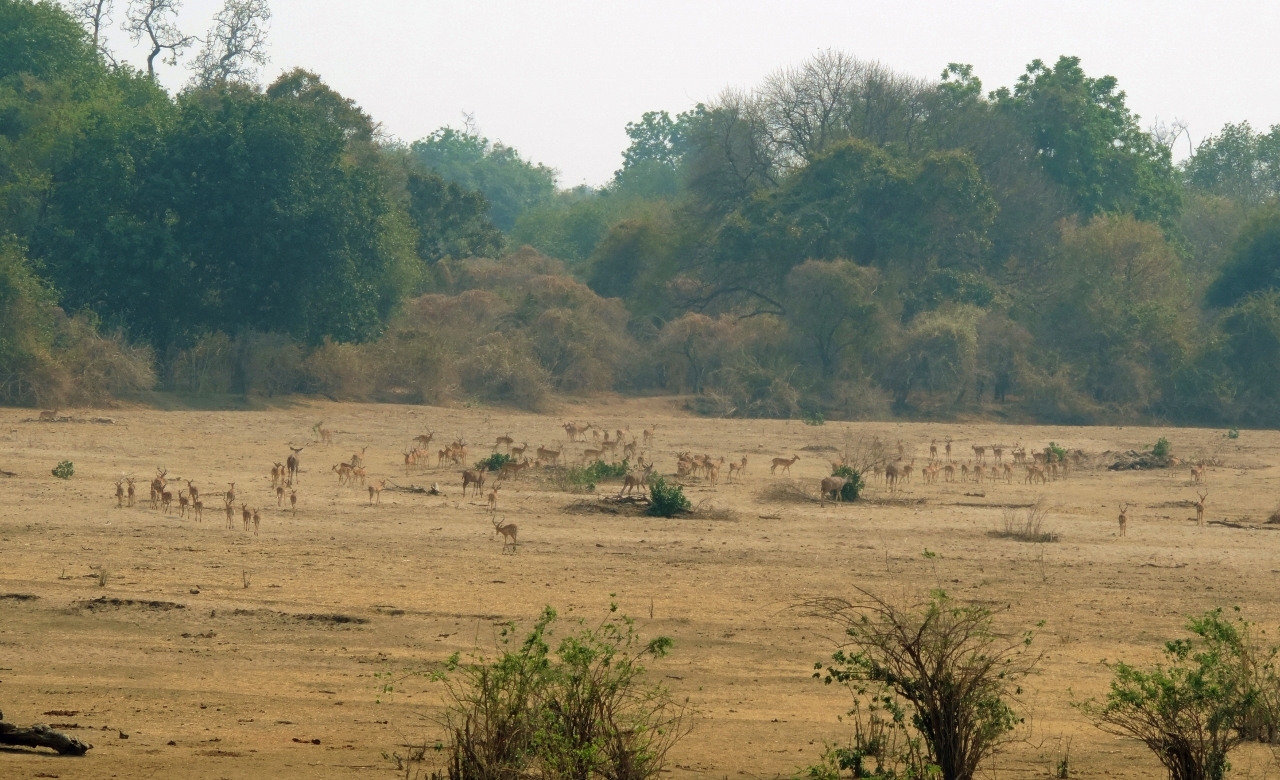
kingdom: Animalia
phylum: Chordata
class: Mammalia
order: Artiodactyla
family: Bovidae
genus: Aepyceros
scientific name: Aepyceros melampus
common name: Impala
